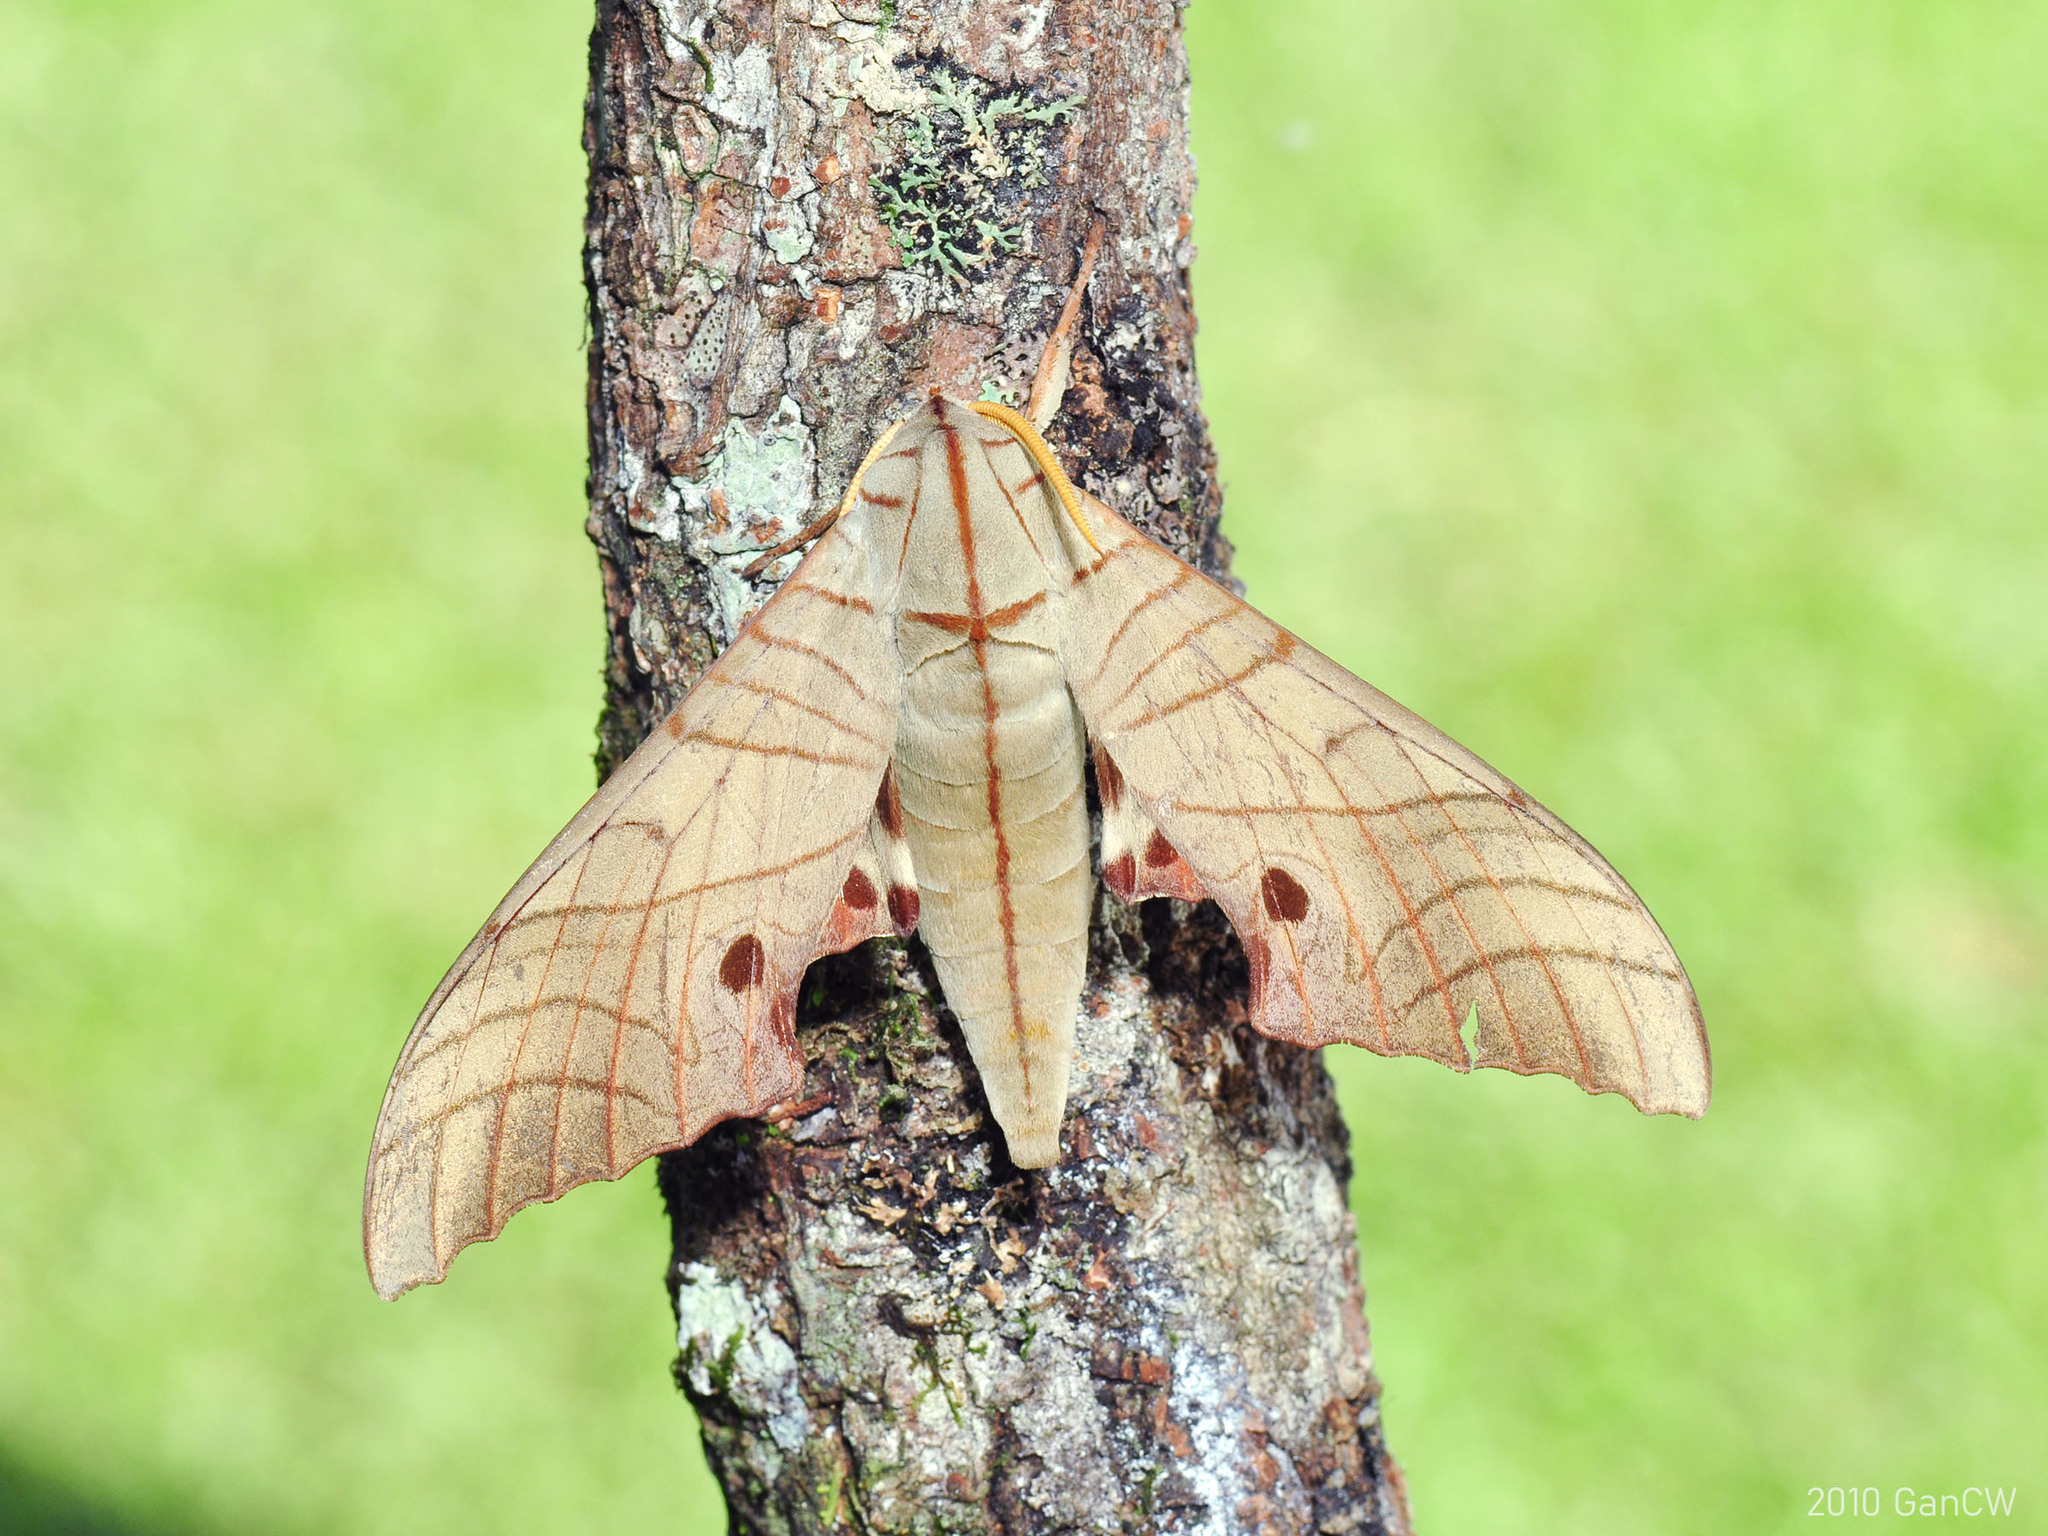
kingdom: Animalia
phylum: Arthropoda
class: Insecta
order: Lepidoptera
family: Sphingidae
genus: Marumba
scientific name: Marumba juvencus
